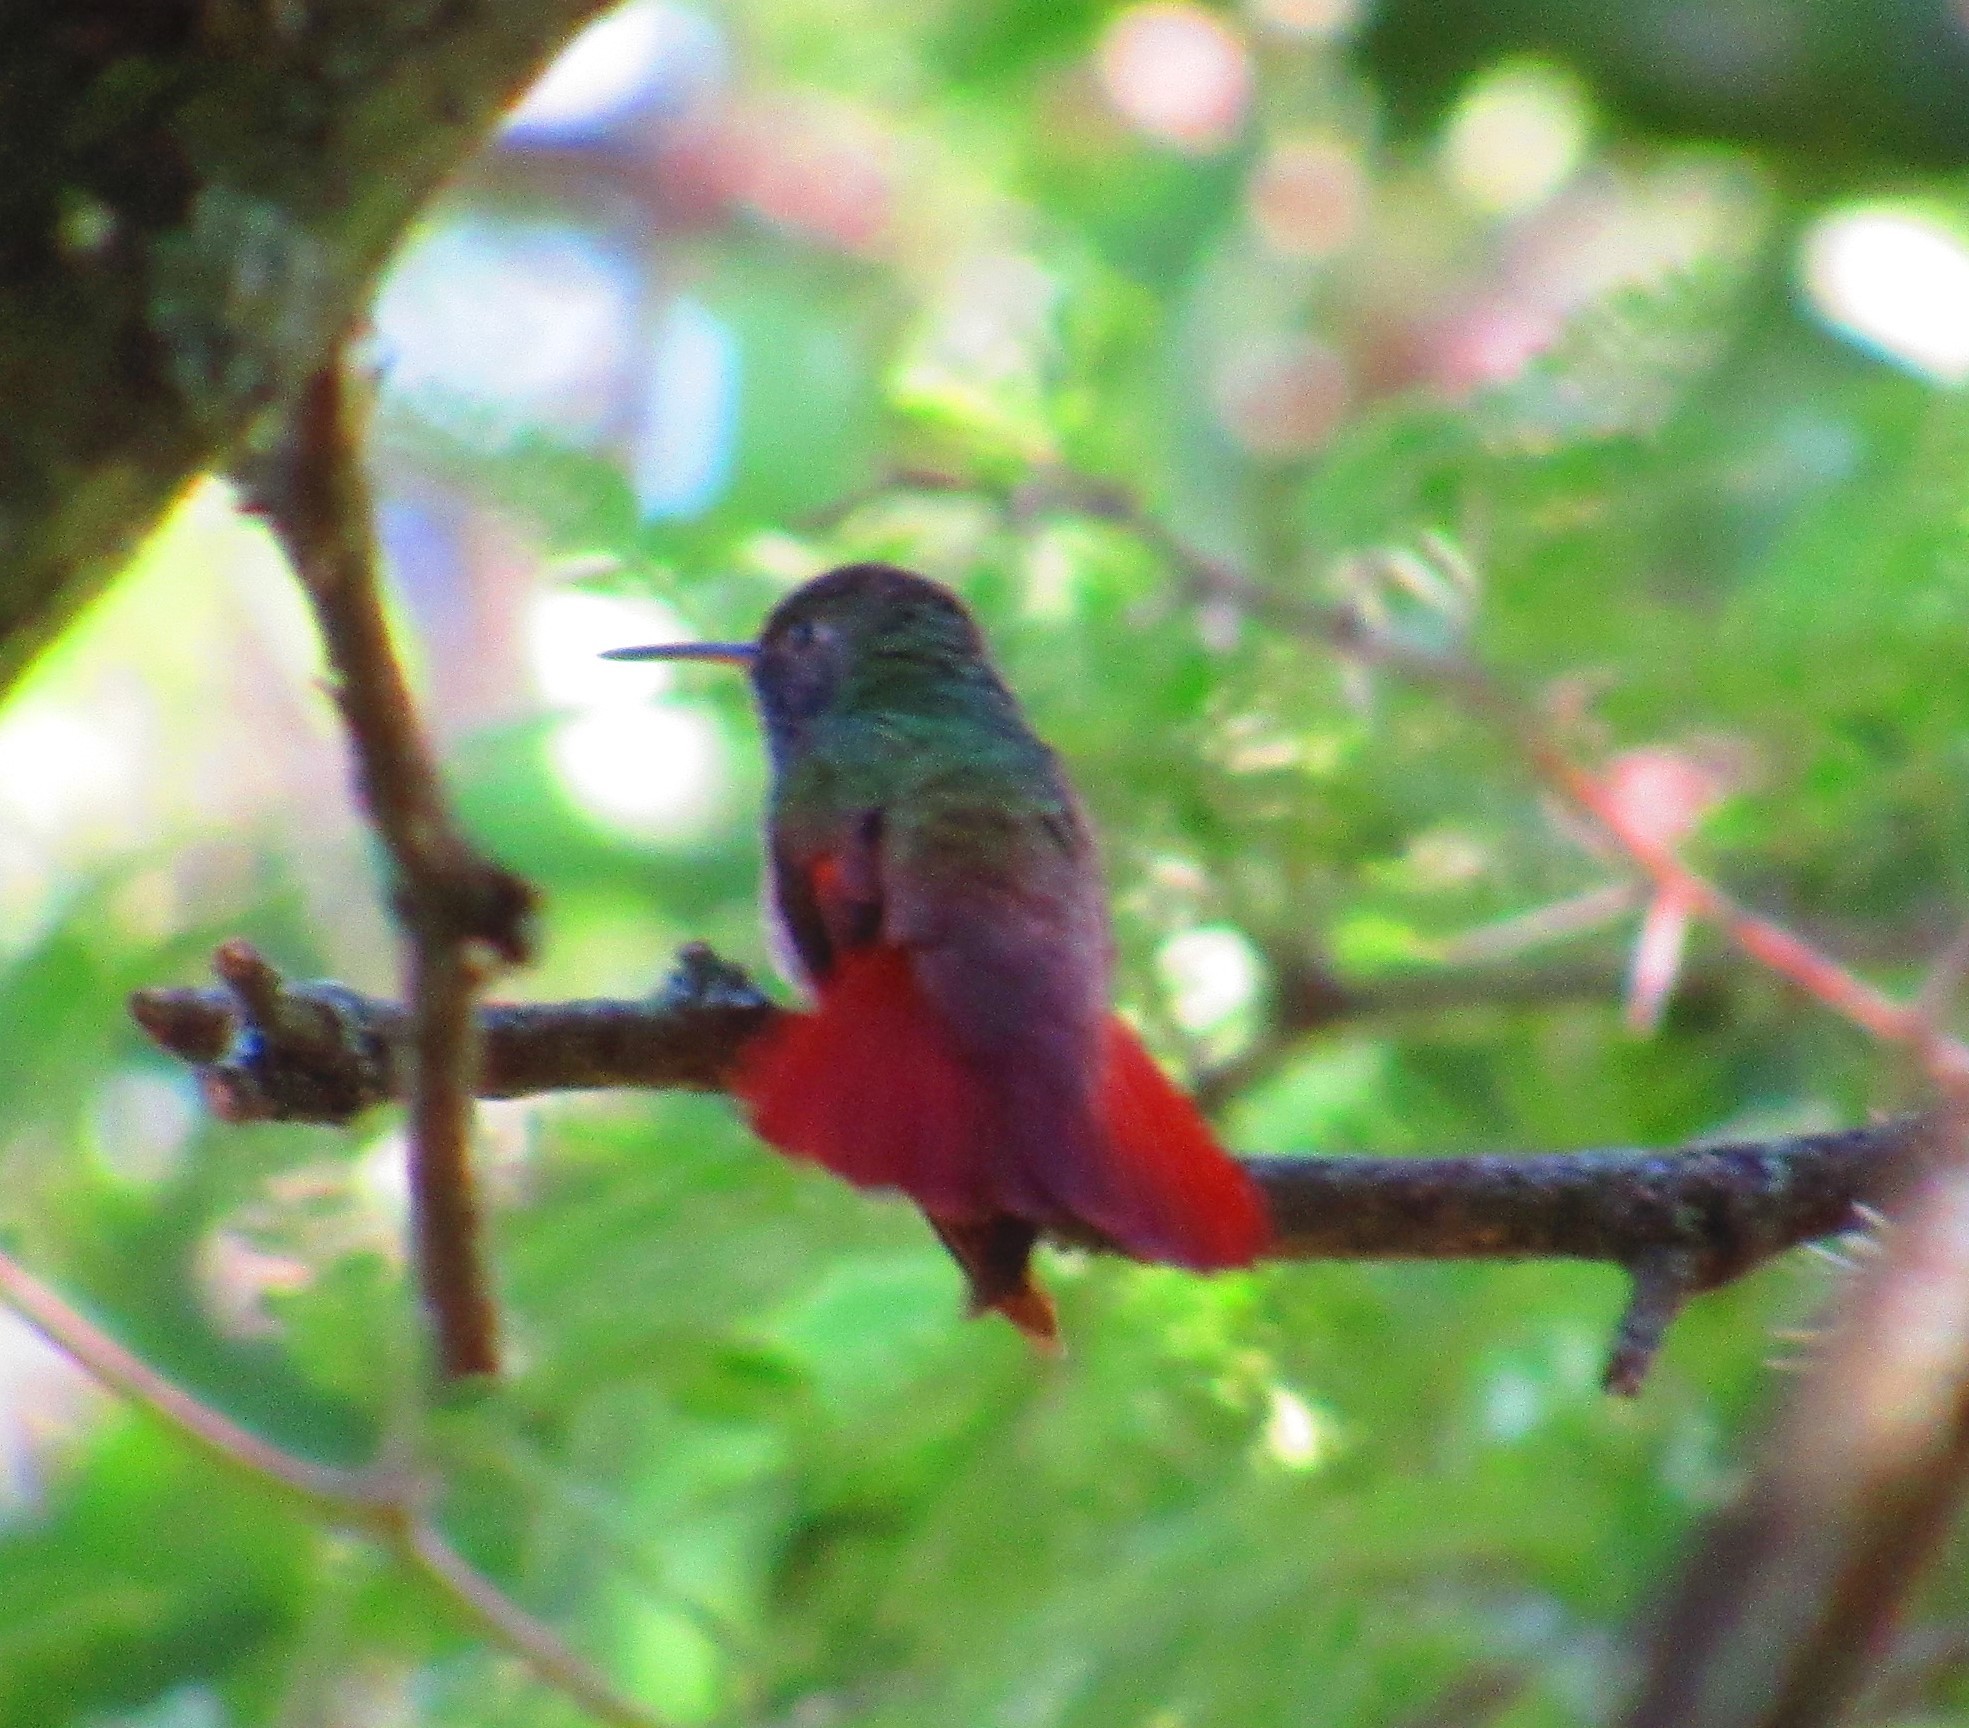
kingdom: Animalia
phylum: Chordata
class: Aves
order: Apodiformes
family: Trochilidae
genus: Saucerottia
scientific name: Saucerottia beryllina
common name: Berylline hummingbird
